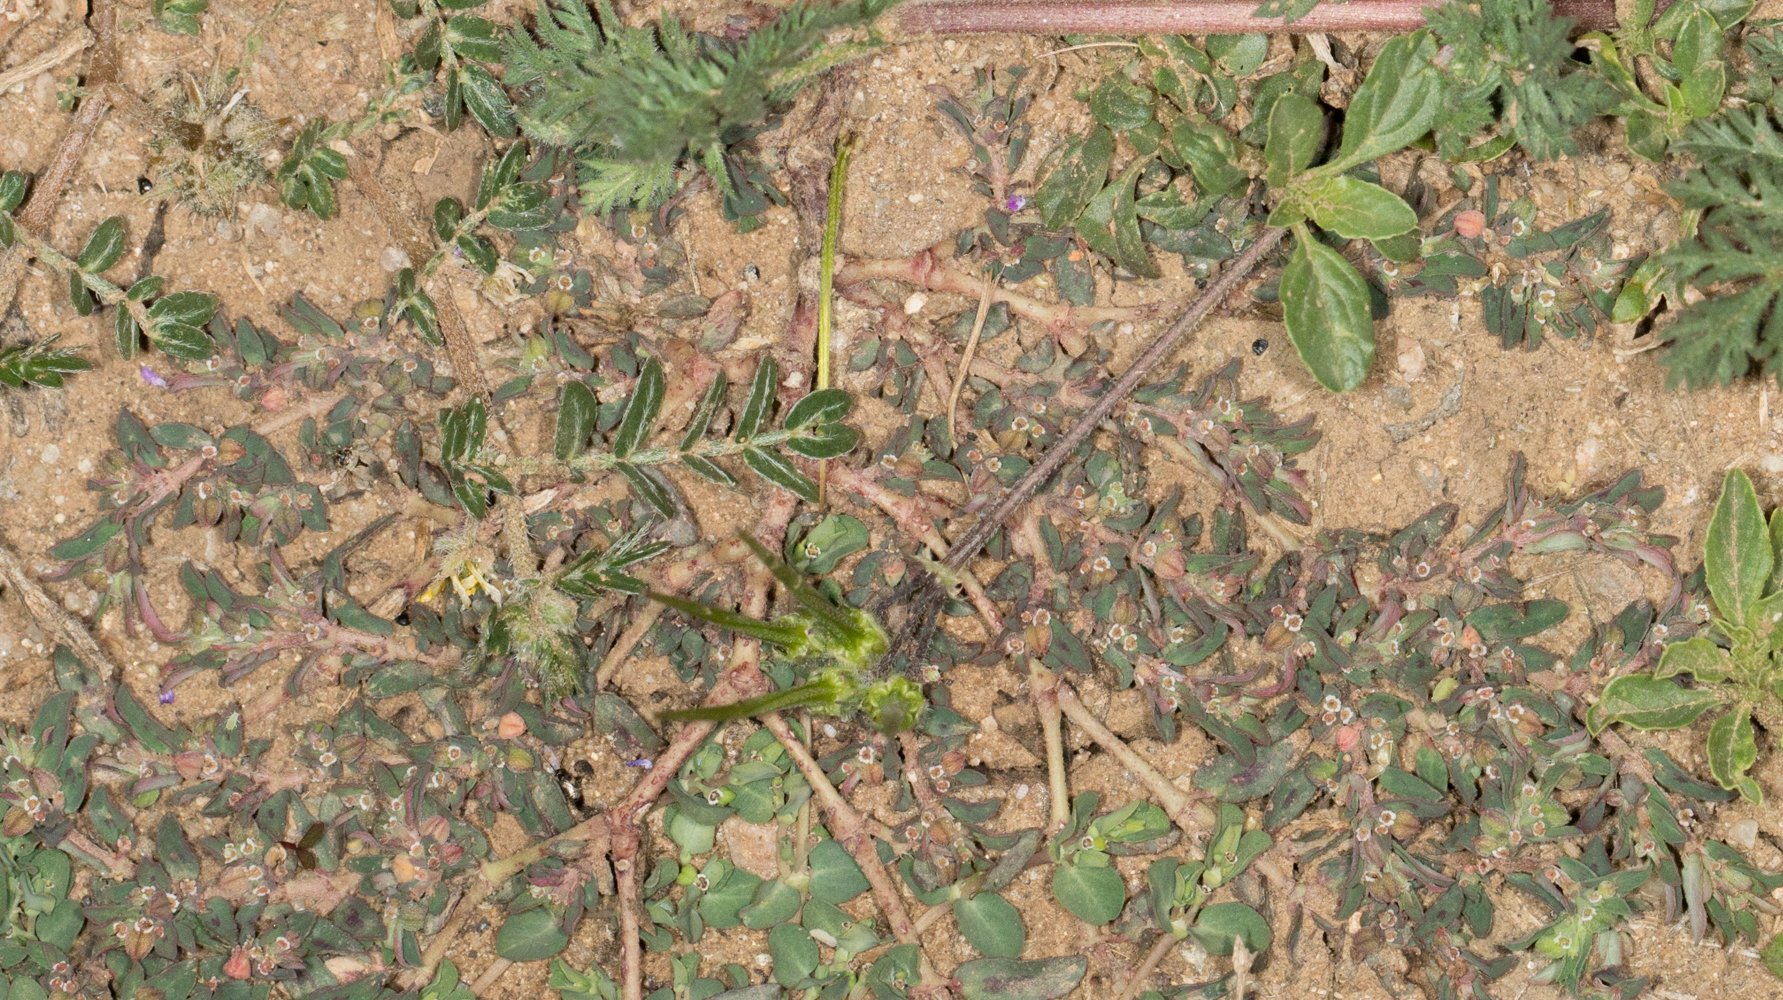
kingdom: Plantae
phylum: Tracheophyta
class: Magnoliopsida
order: Malpighiales
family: Euphorbiaceae
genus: Euphorbia
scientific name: Euphorbia maculata
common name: Spotted spurge
